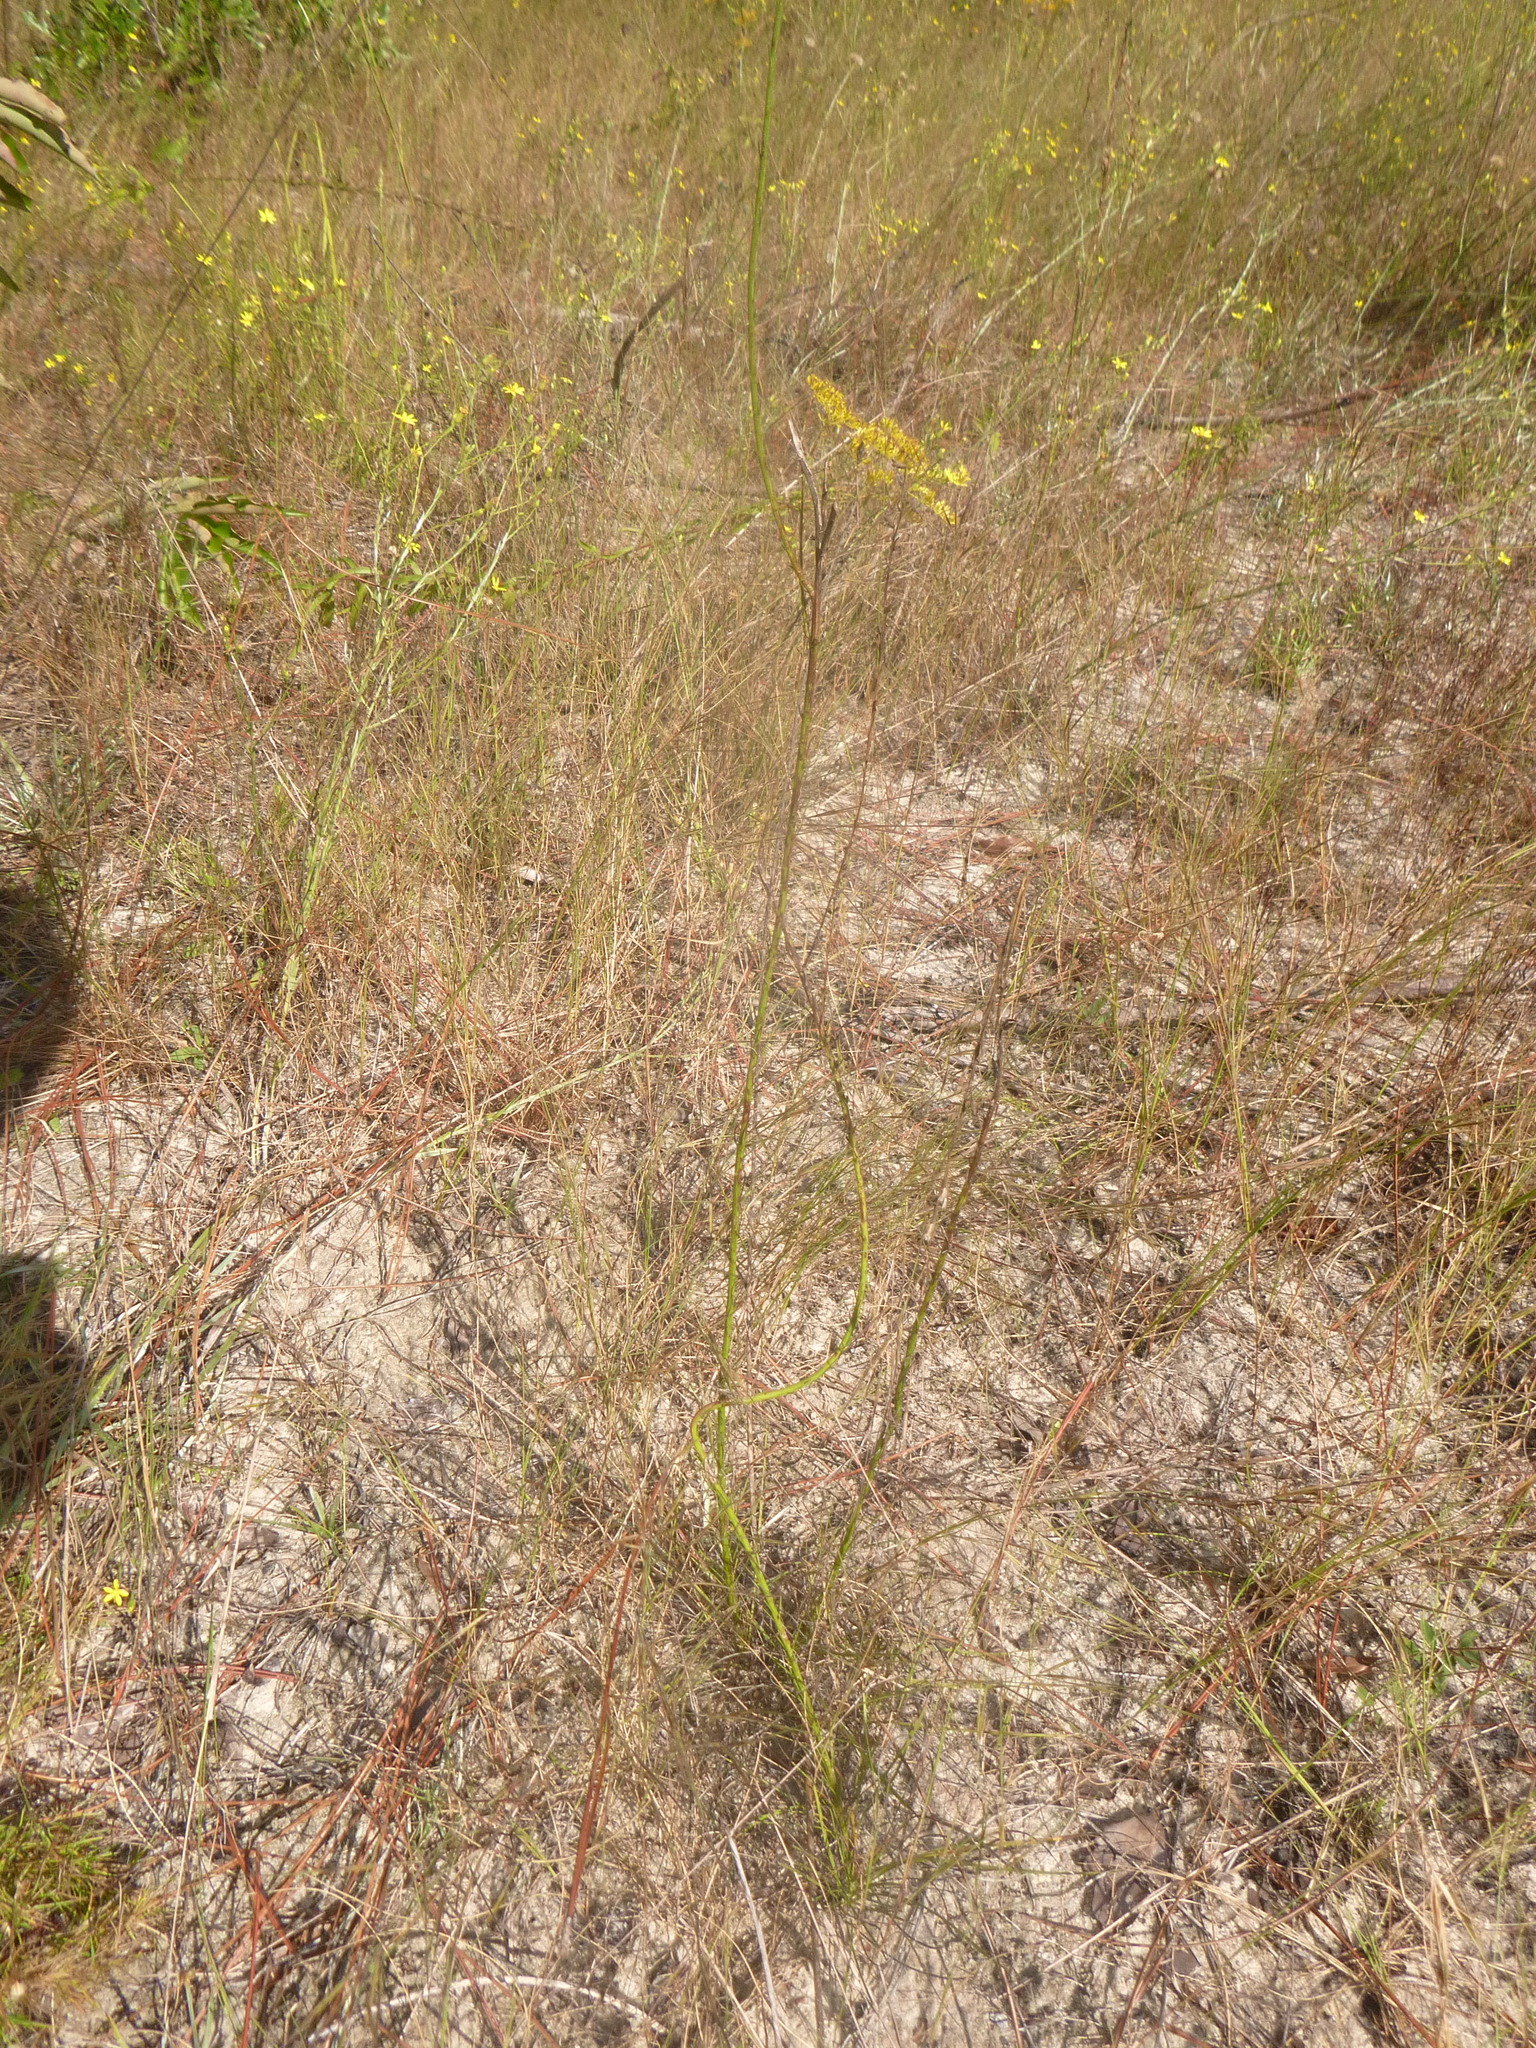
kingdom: Plantae
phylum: Tracheophyta
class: Magnoliopsida
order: Asterales
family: Asteraceae
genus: Liatris
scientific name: Liatris tenuifolia
